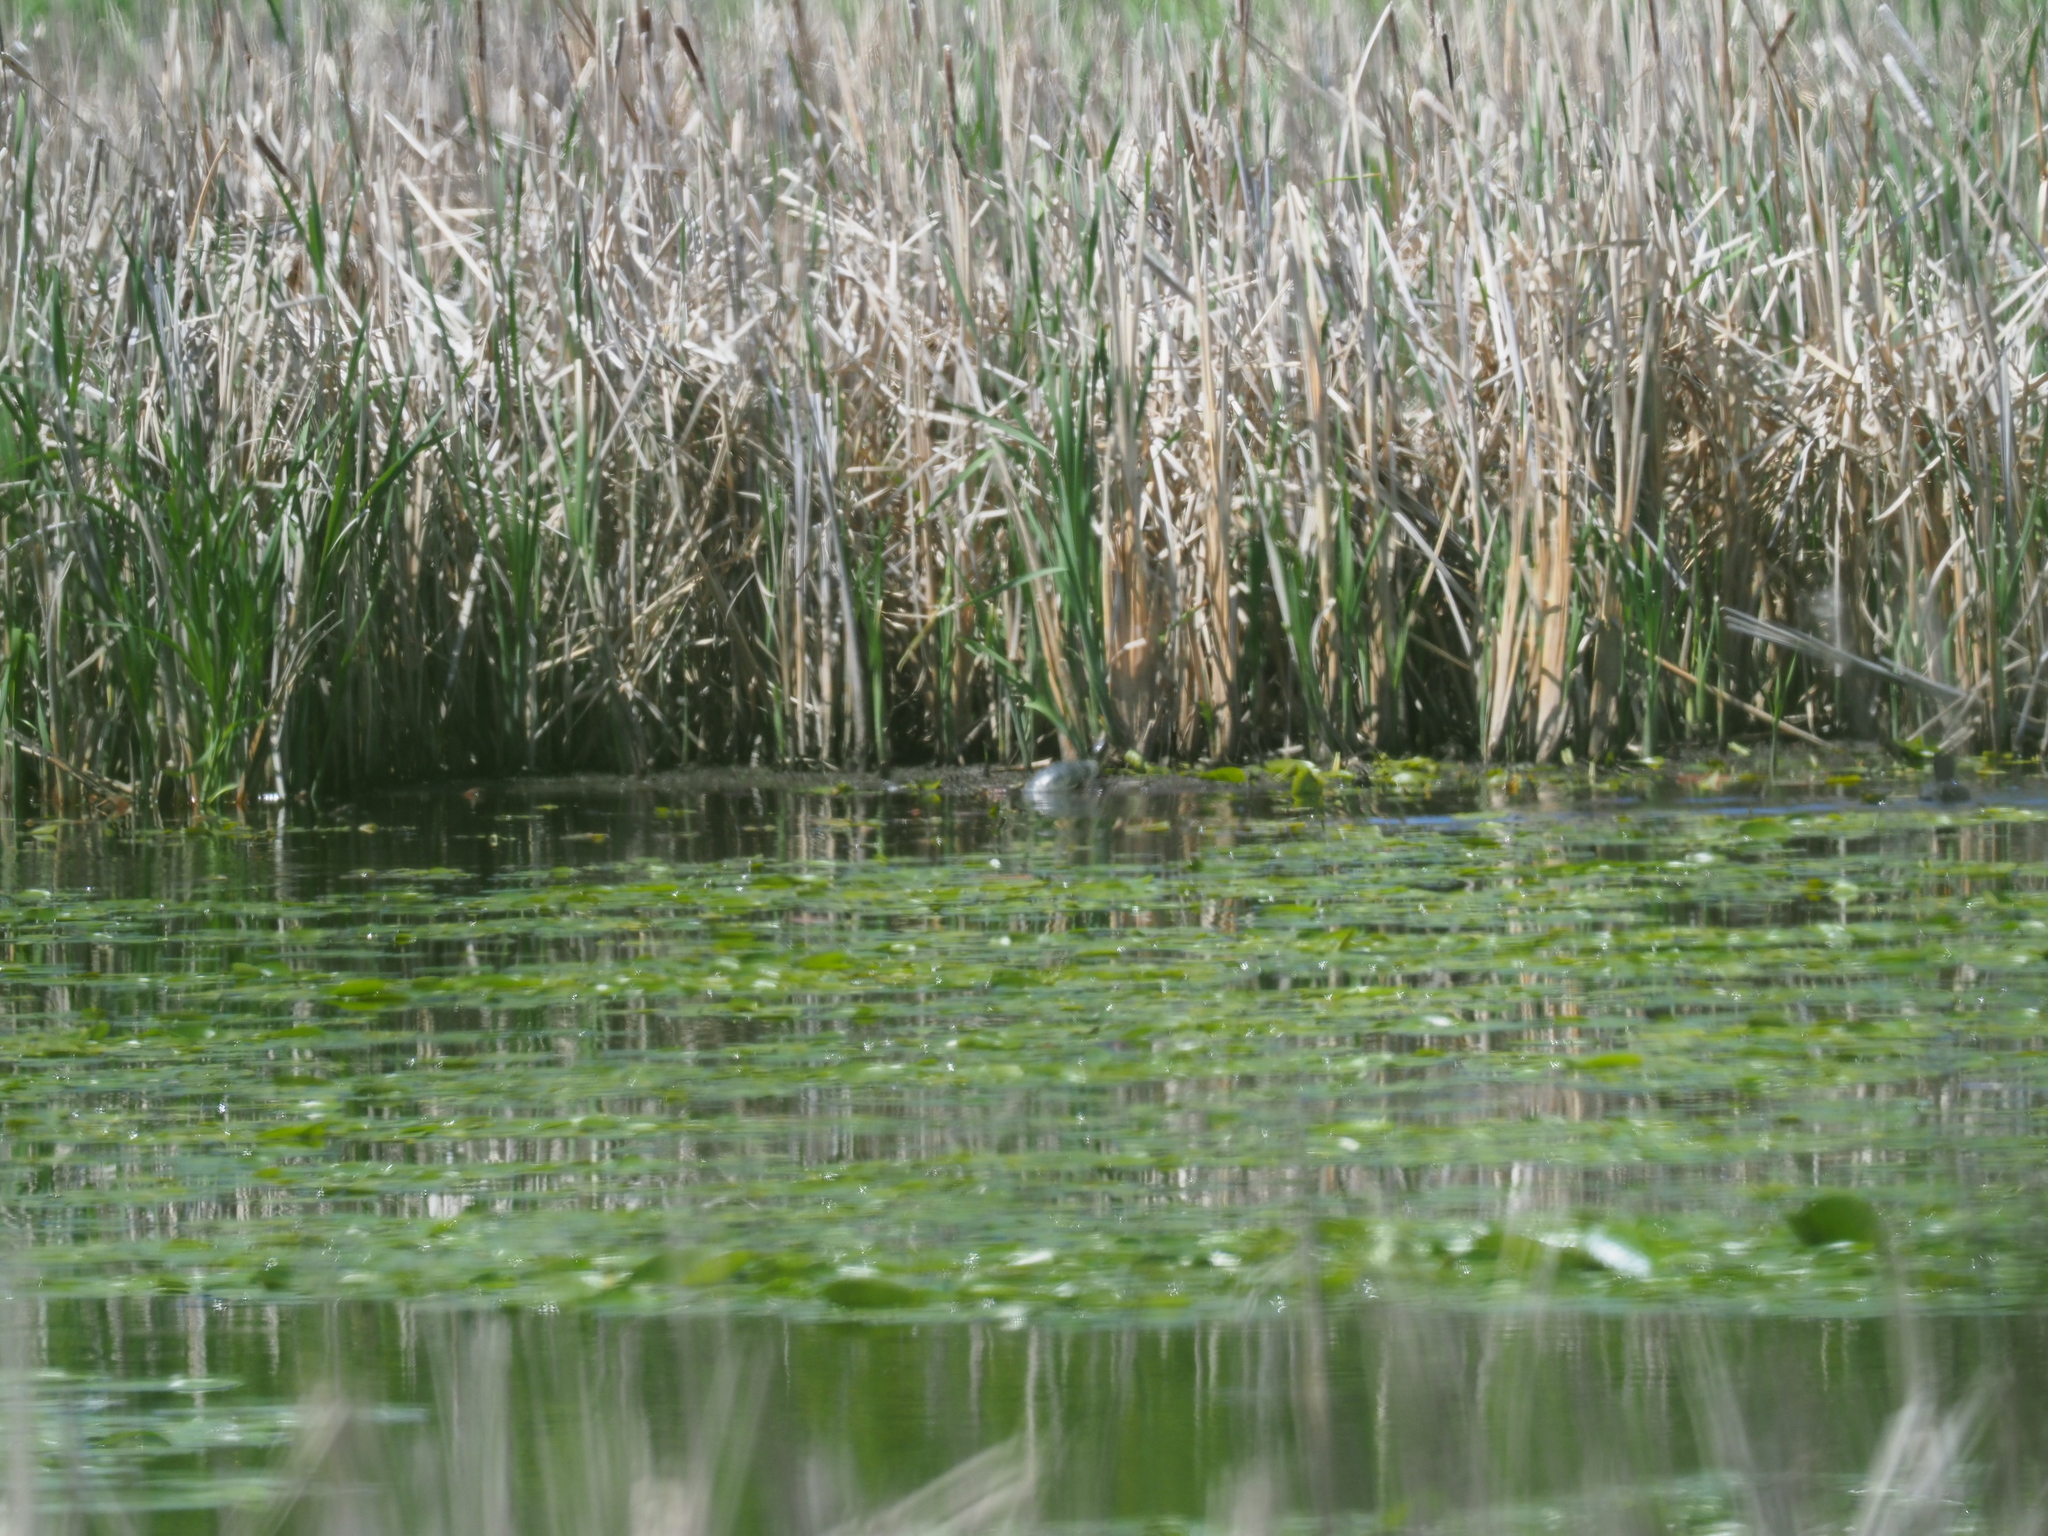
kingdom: Animalia
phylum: Chordata
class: Testudines
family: Emydidae
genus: Chrysemys
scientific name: Chrysemys picta
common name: Painted turtle
